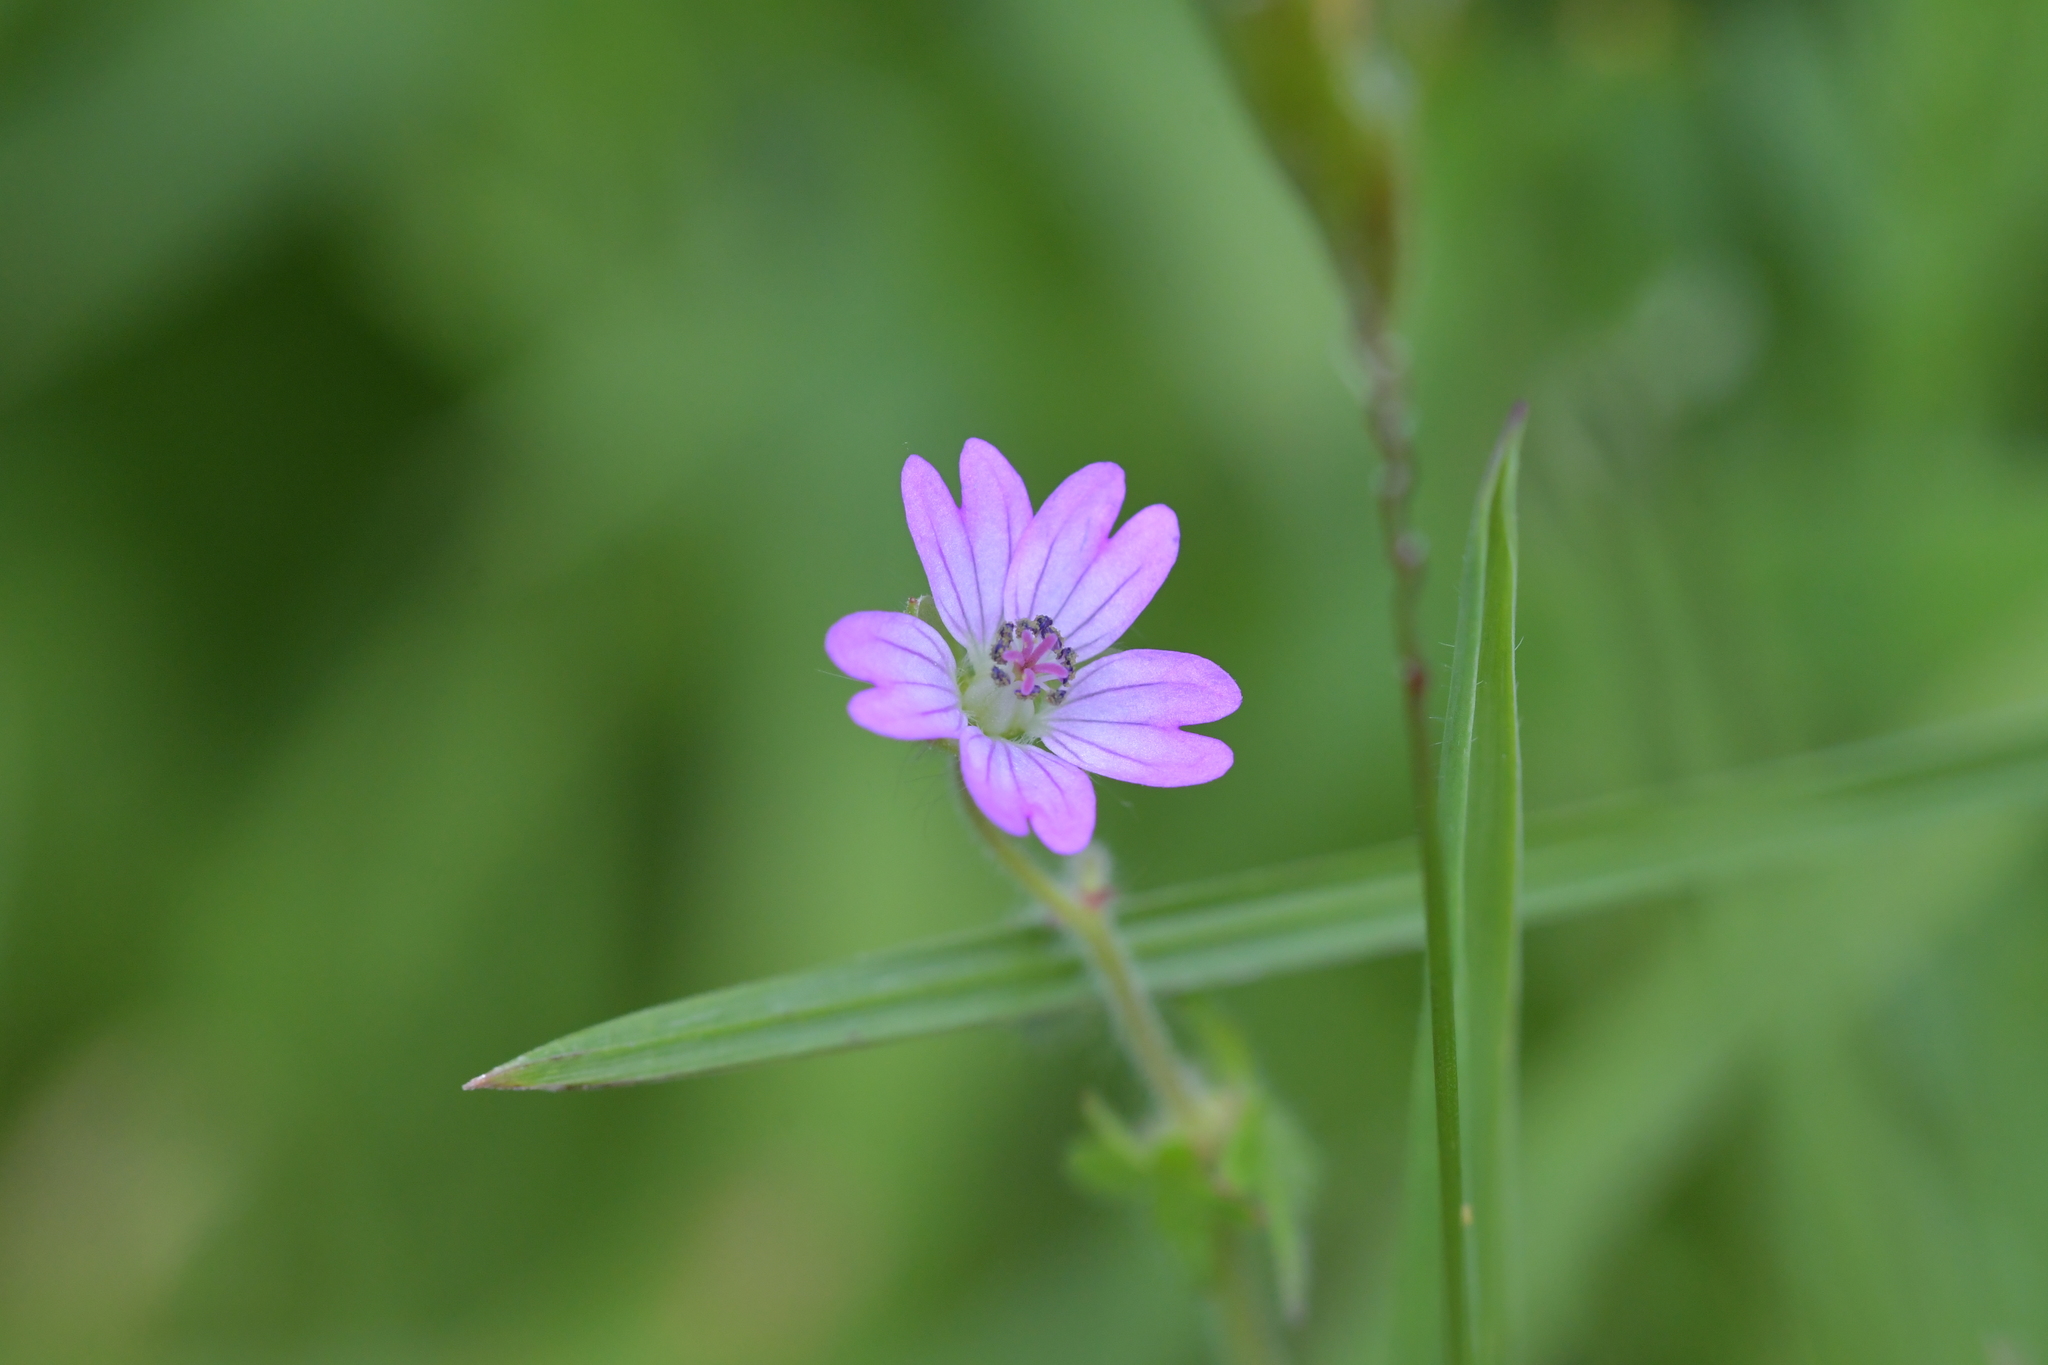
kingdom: Plantae
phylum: Tracheophyta
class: Magnoliopsida
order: Geraniales
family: Geraniaceae
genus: Geranium
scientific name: Geranium molle
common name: Dove's-foot crane's-bill
